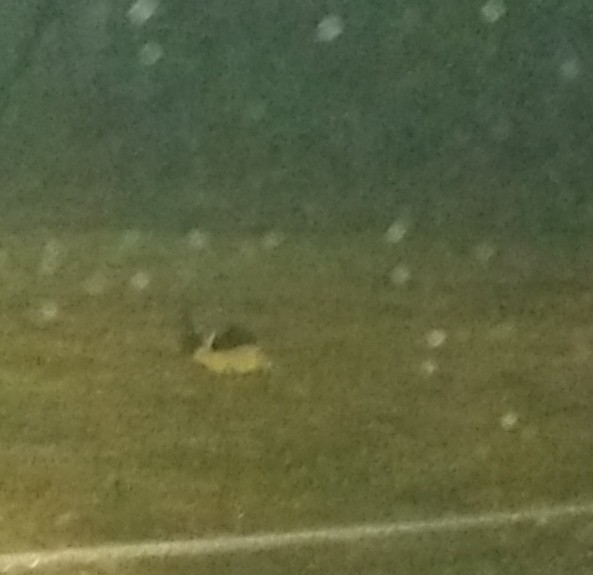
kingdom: Animalia
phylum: Chordata
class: Mammalia
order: Lagomorpha
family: Leporidae
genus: Sylvilagus
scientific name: Sylvilagus floridanus
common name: Eastern cottontail
